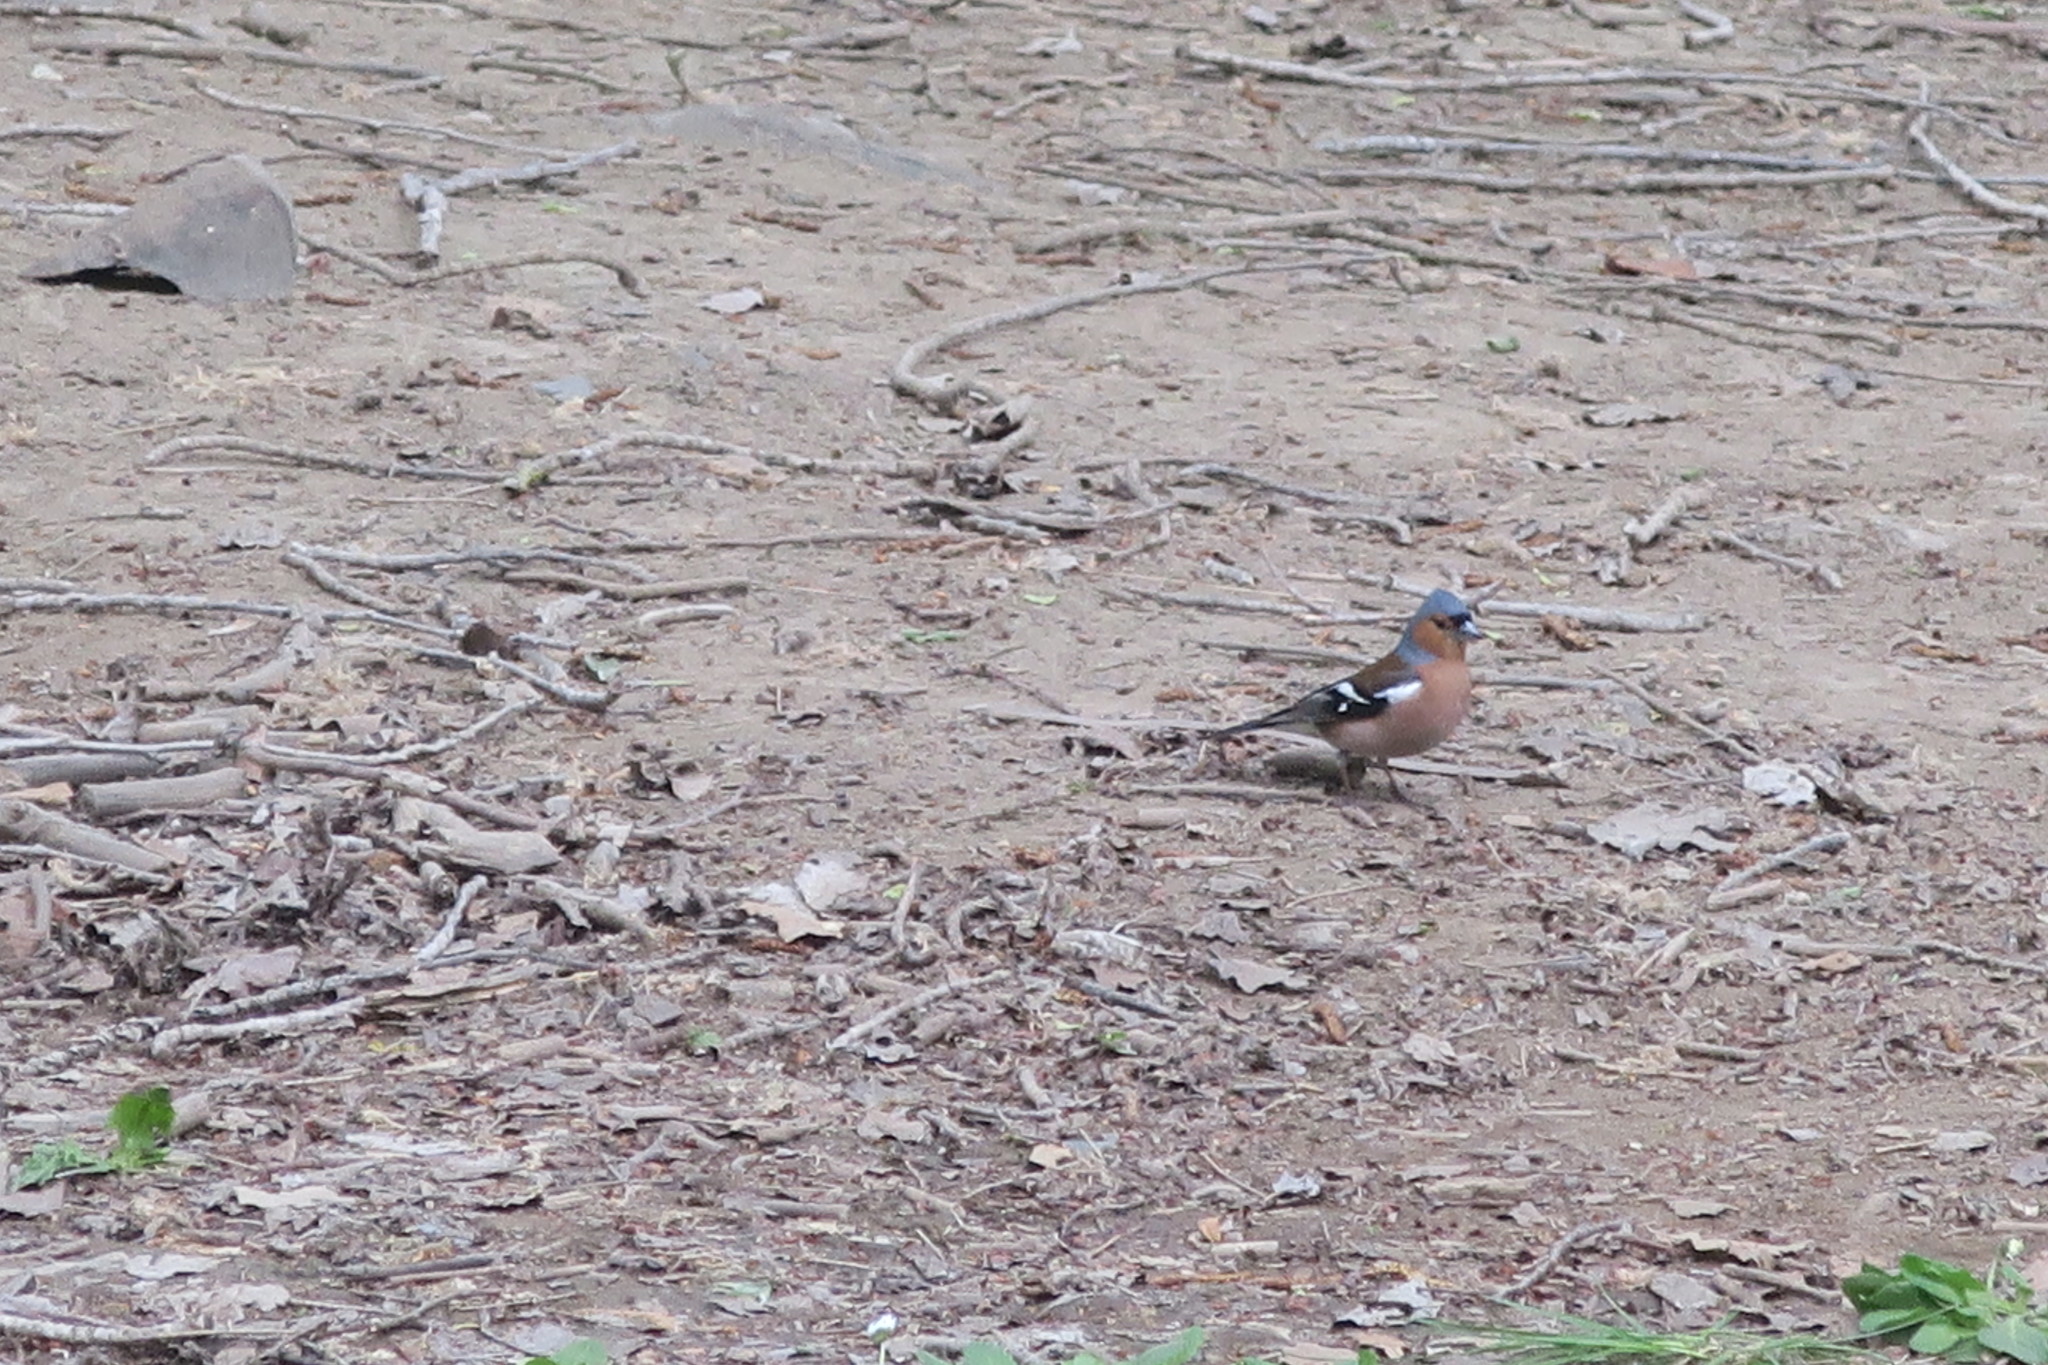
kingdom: Animalia
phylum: Chordata
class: Aves
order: Passeriformes
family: Fringillidae
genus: Fringilla
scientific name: Fringilla coelebs
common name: Common chaffinch
